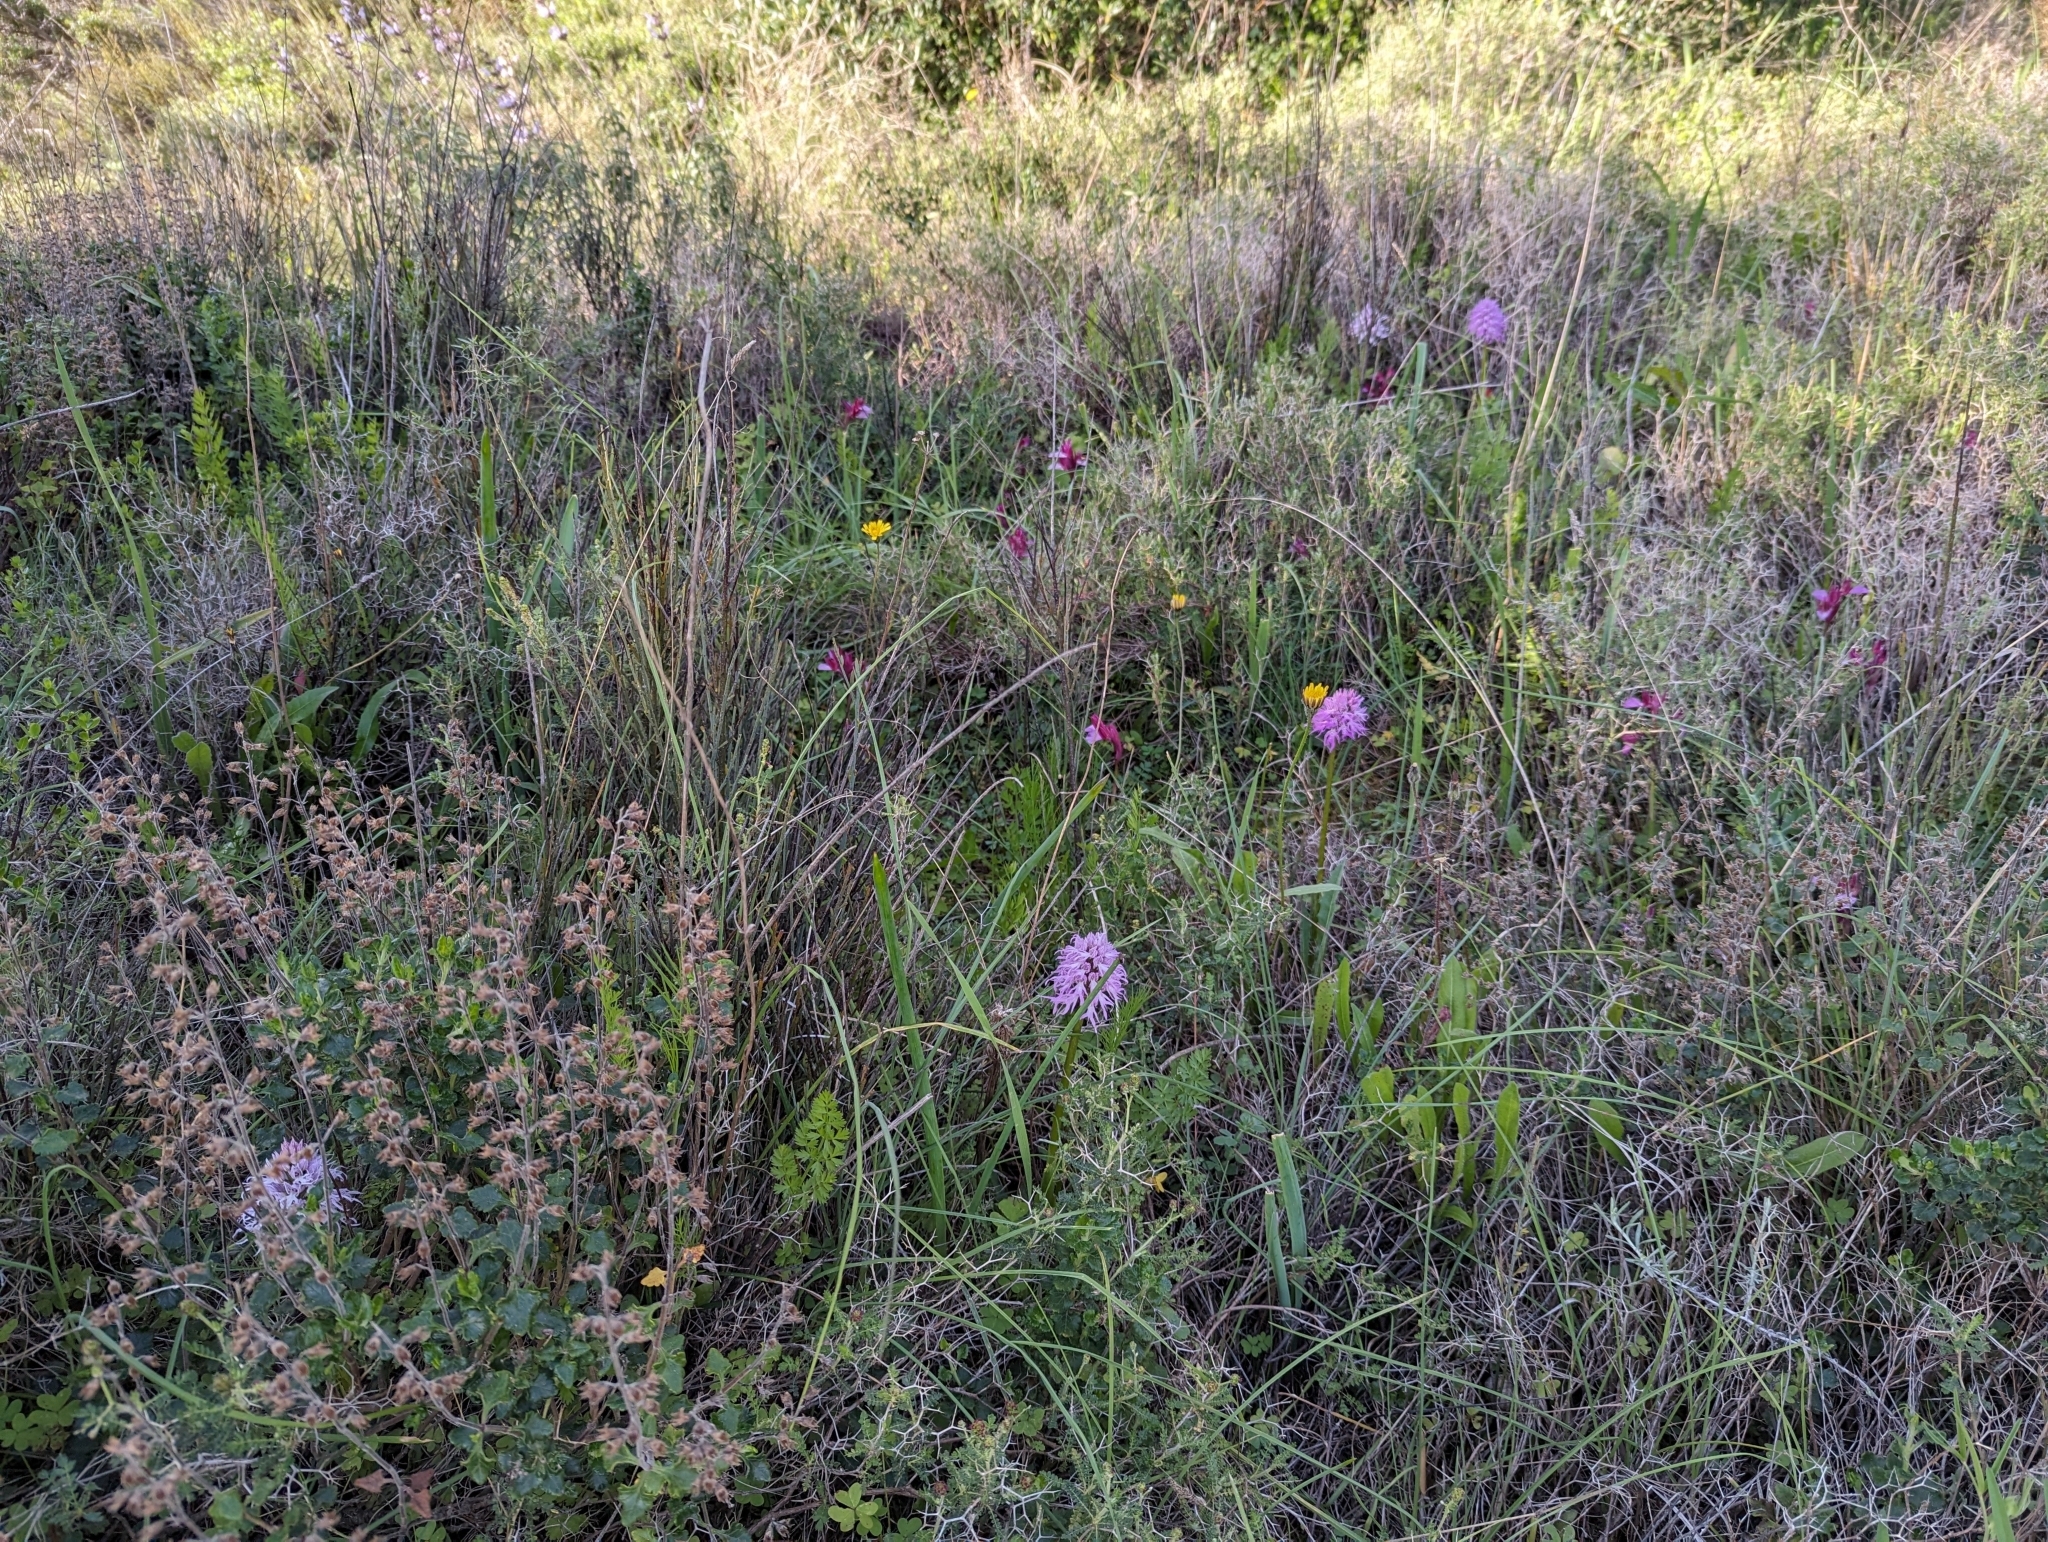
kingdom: Plantae
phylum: Tracheophyta
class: Liliopsida
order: Asparagales
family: Orchidaceae
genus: Orchis
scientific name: Orchis italica
